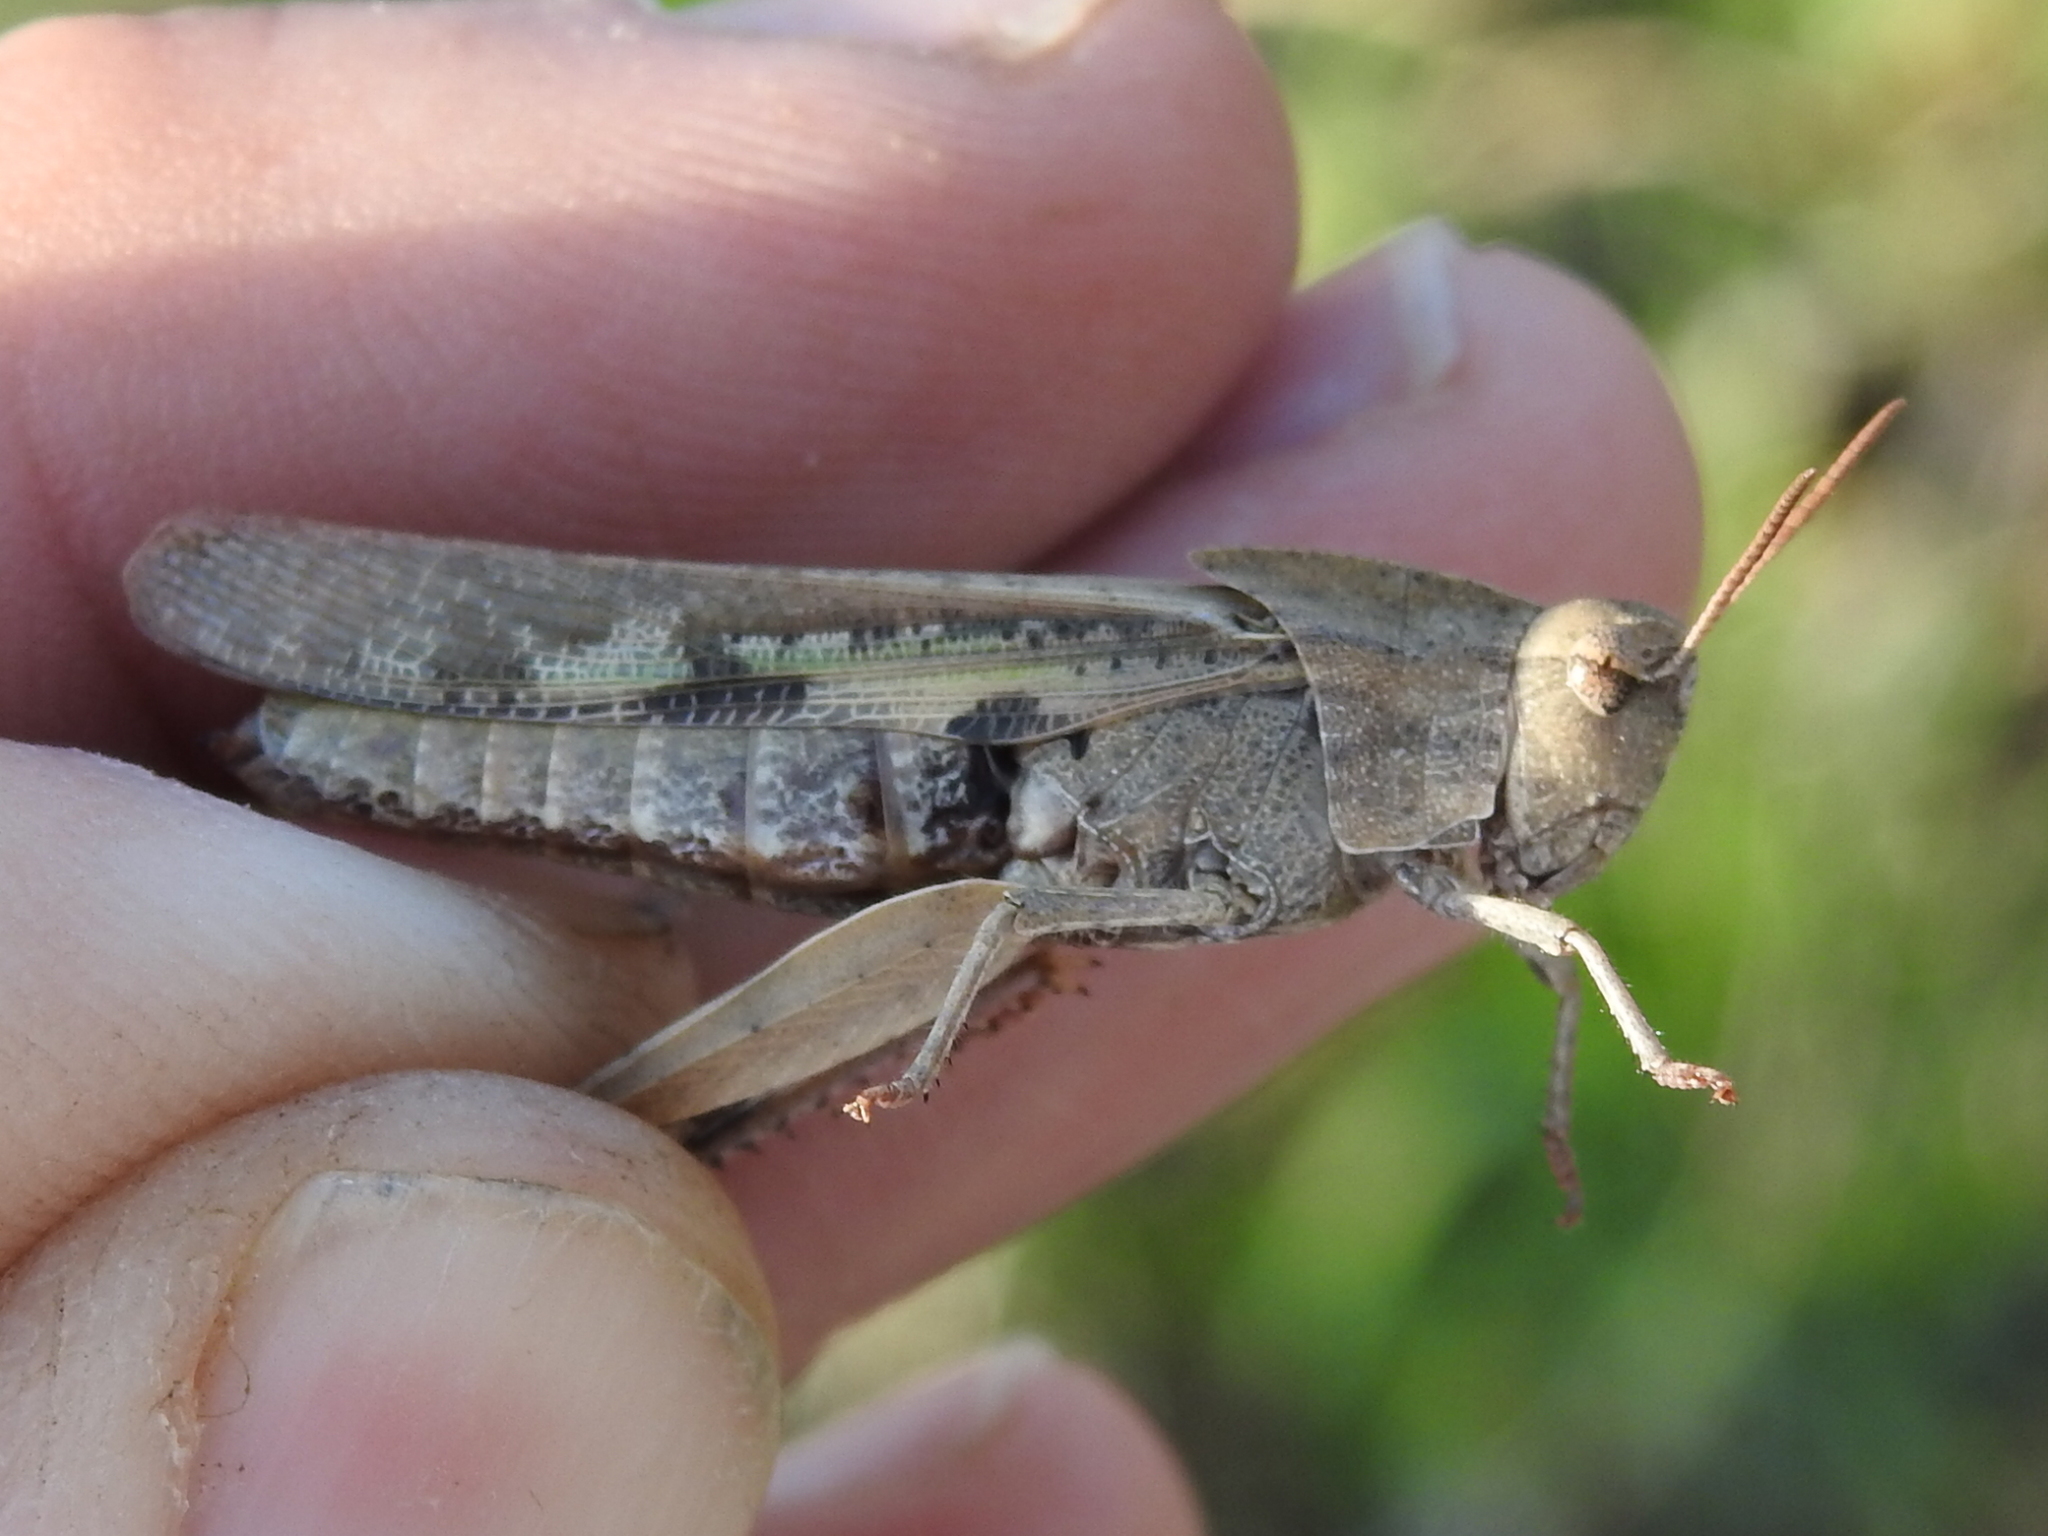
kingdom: Animalia
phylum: Arthropoda
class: Insecta
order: Orthoptera
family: Acrididae
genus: Chortophaga
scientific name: Chortophaga viridifasciata
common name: Green-striped grasshopper
